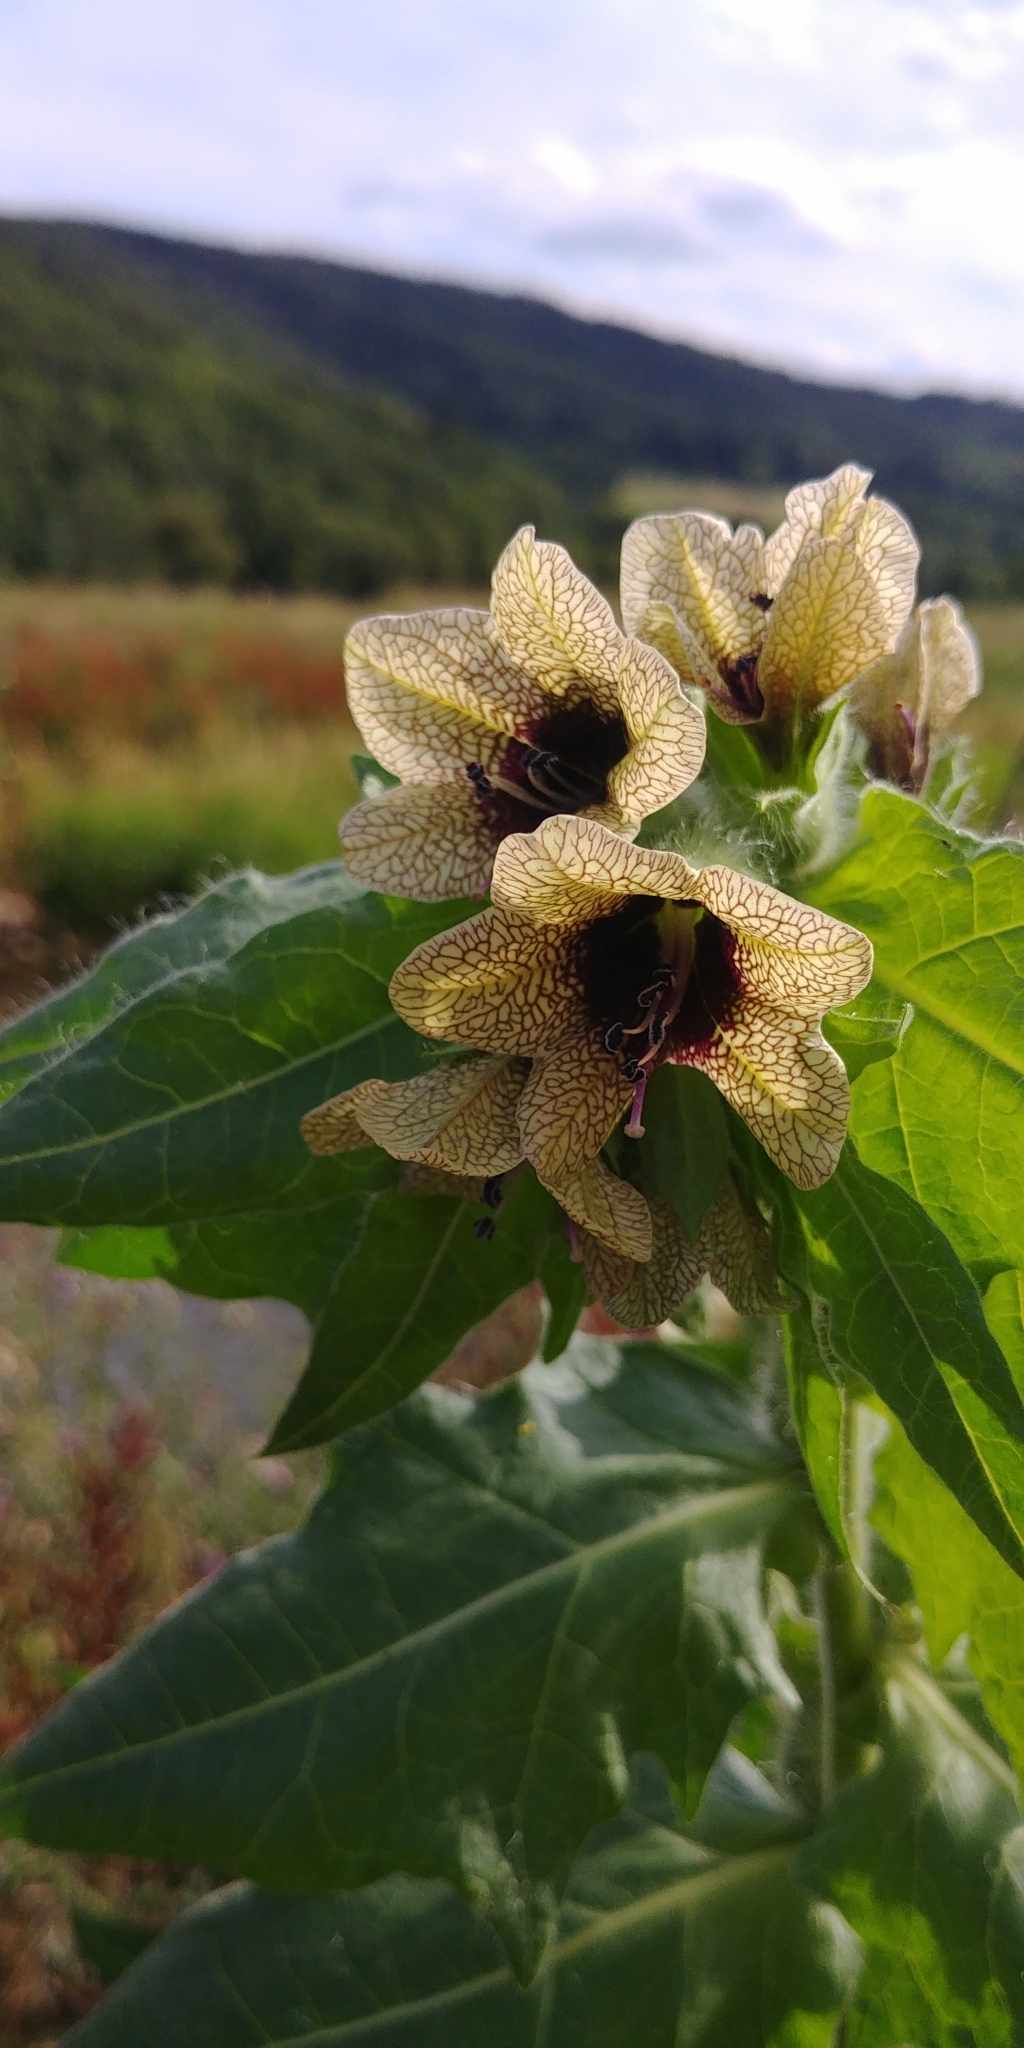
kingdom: Plantae
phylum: Tracheophyta
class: Magnoliopsida
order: Solanales
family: Solanaceae
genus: Hyoscyamus
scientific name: Hyoscyamus niger
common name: Henbane
